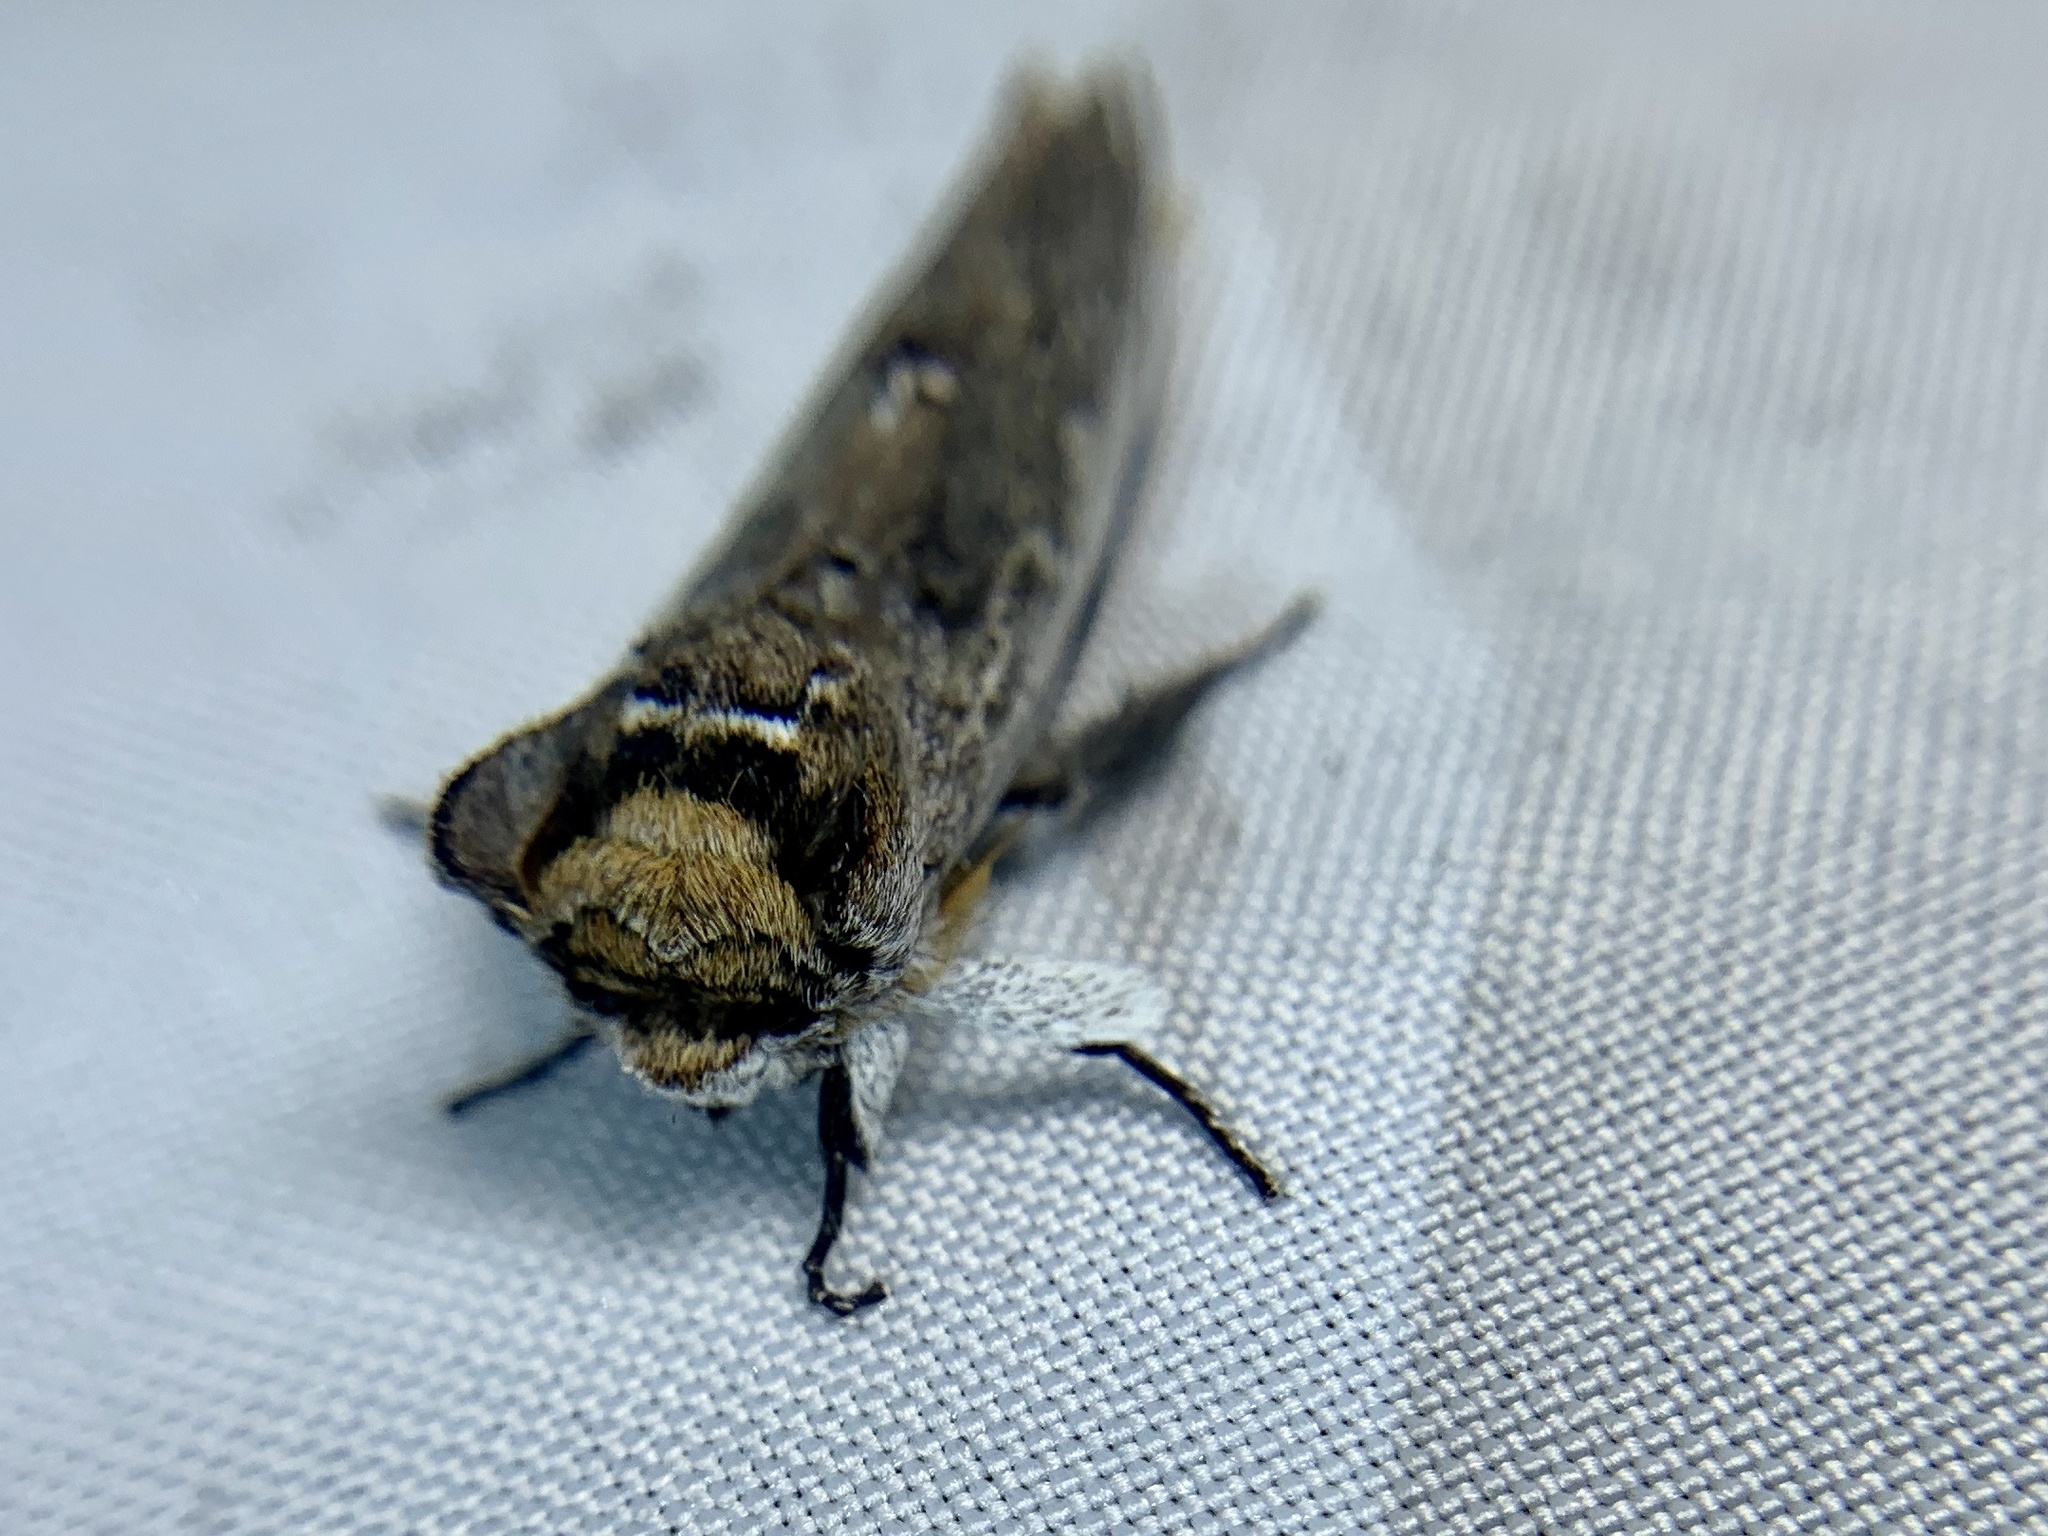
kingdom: Animalia
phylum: Arthropoda
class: Insecta
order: Lepidoptera
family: Notodontidae
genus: Lirimiris
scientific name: Lirimiris auriflua
